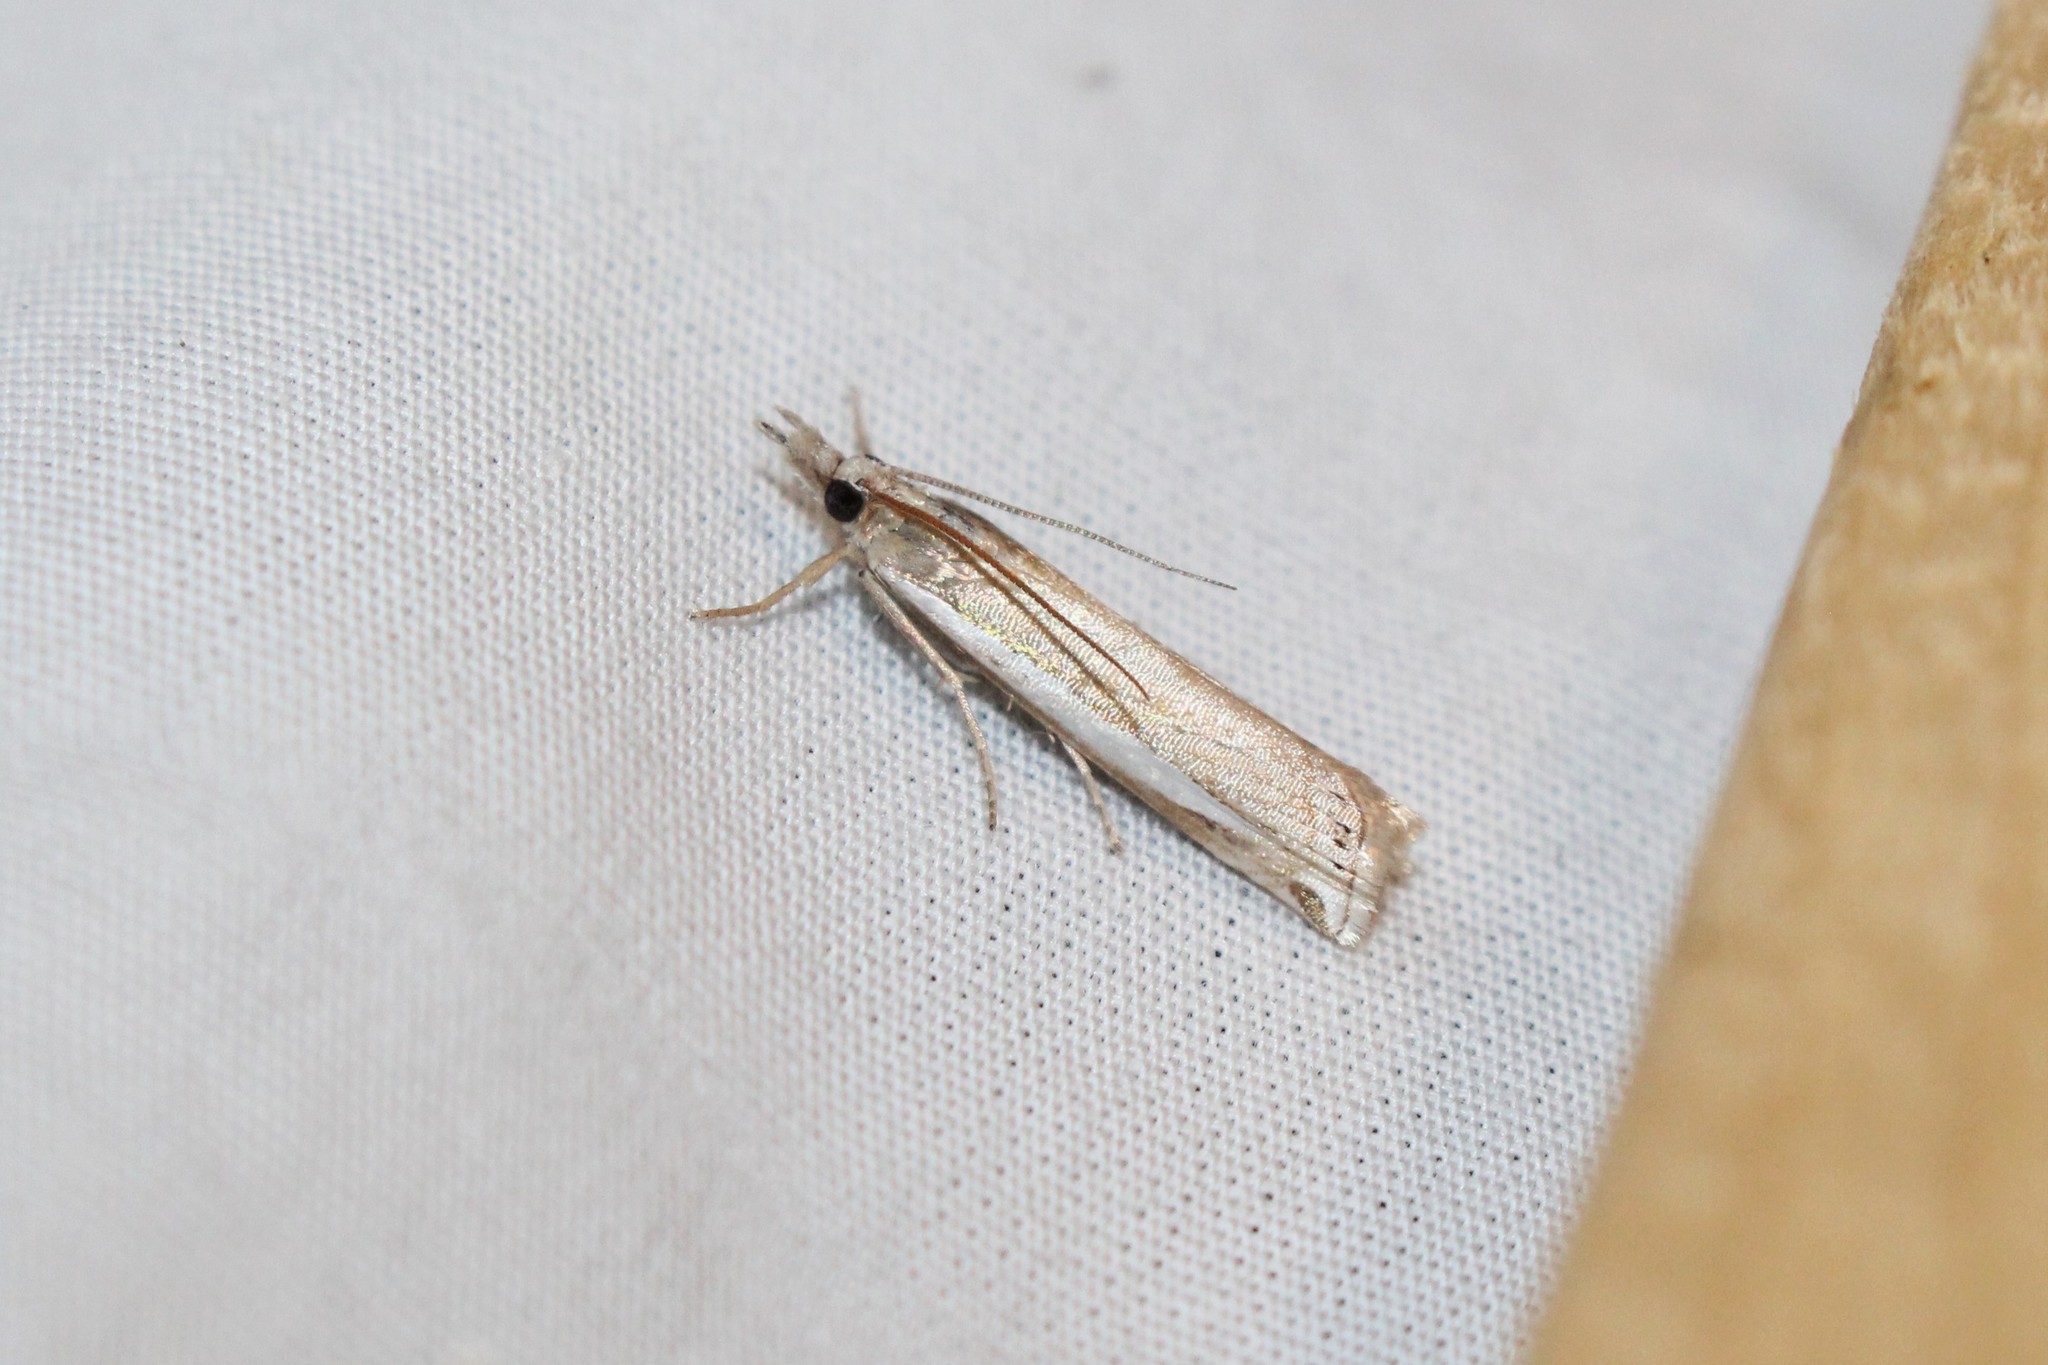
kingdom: Animalia
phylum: Arthropoda
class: Insecta
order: Lepidoptera
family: Crambidae
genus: Crambus
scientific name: Crambus praefectellus
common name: Common grass-veneer
